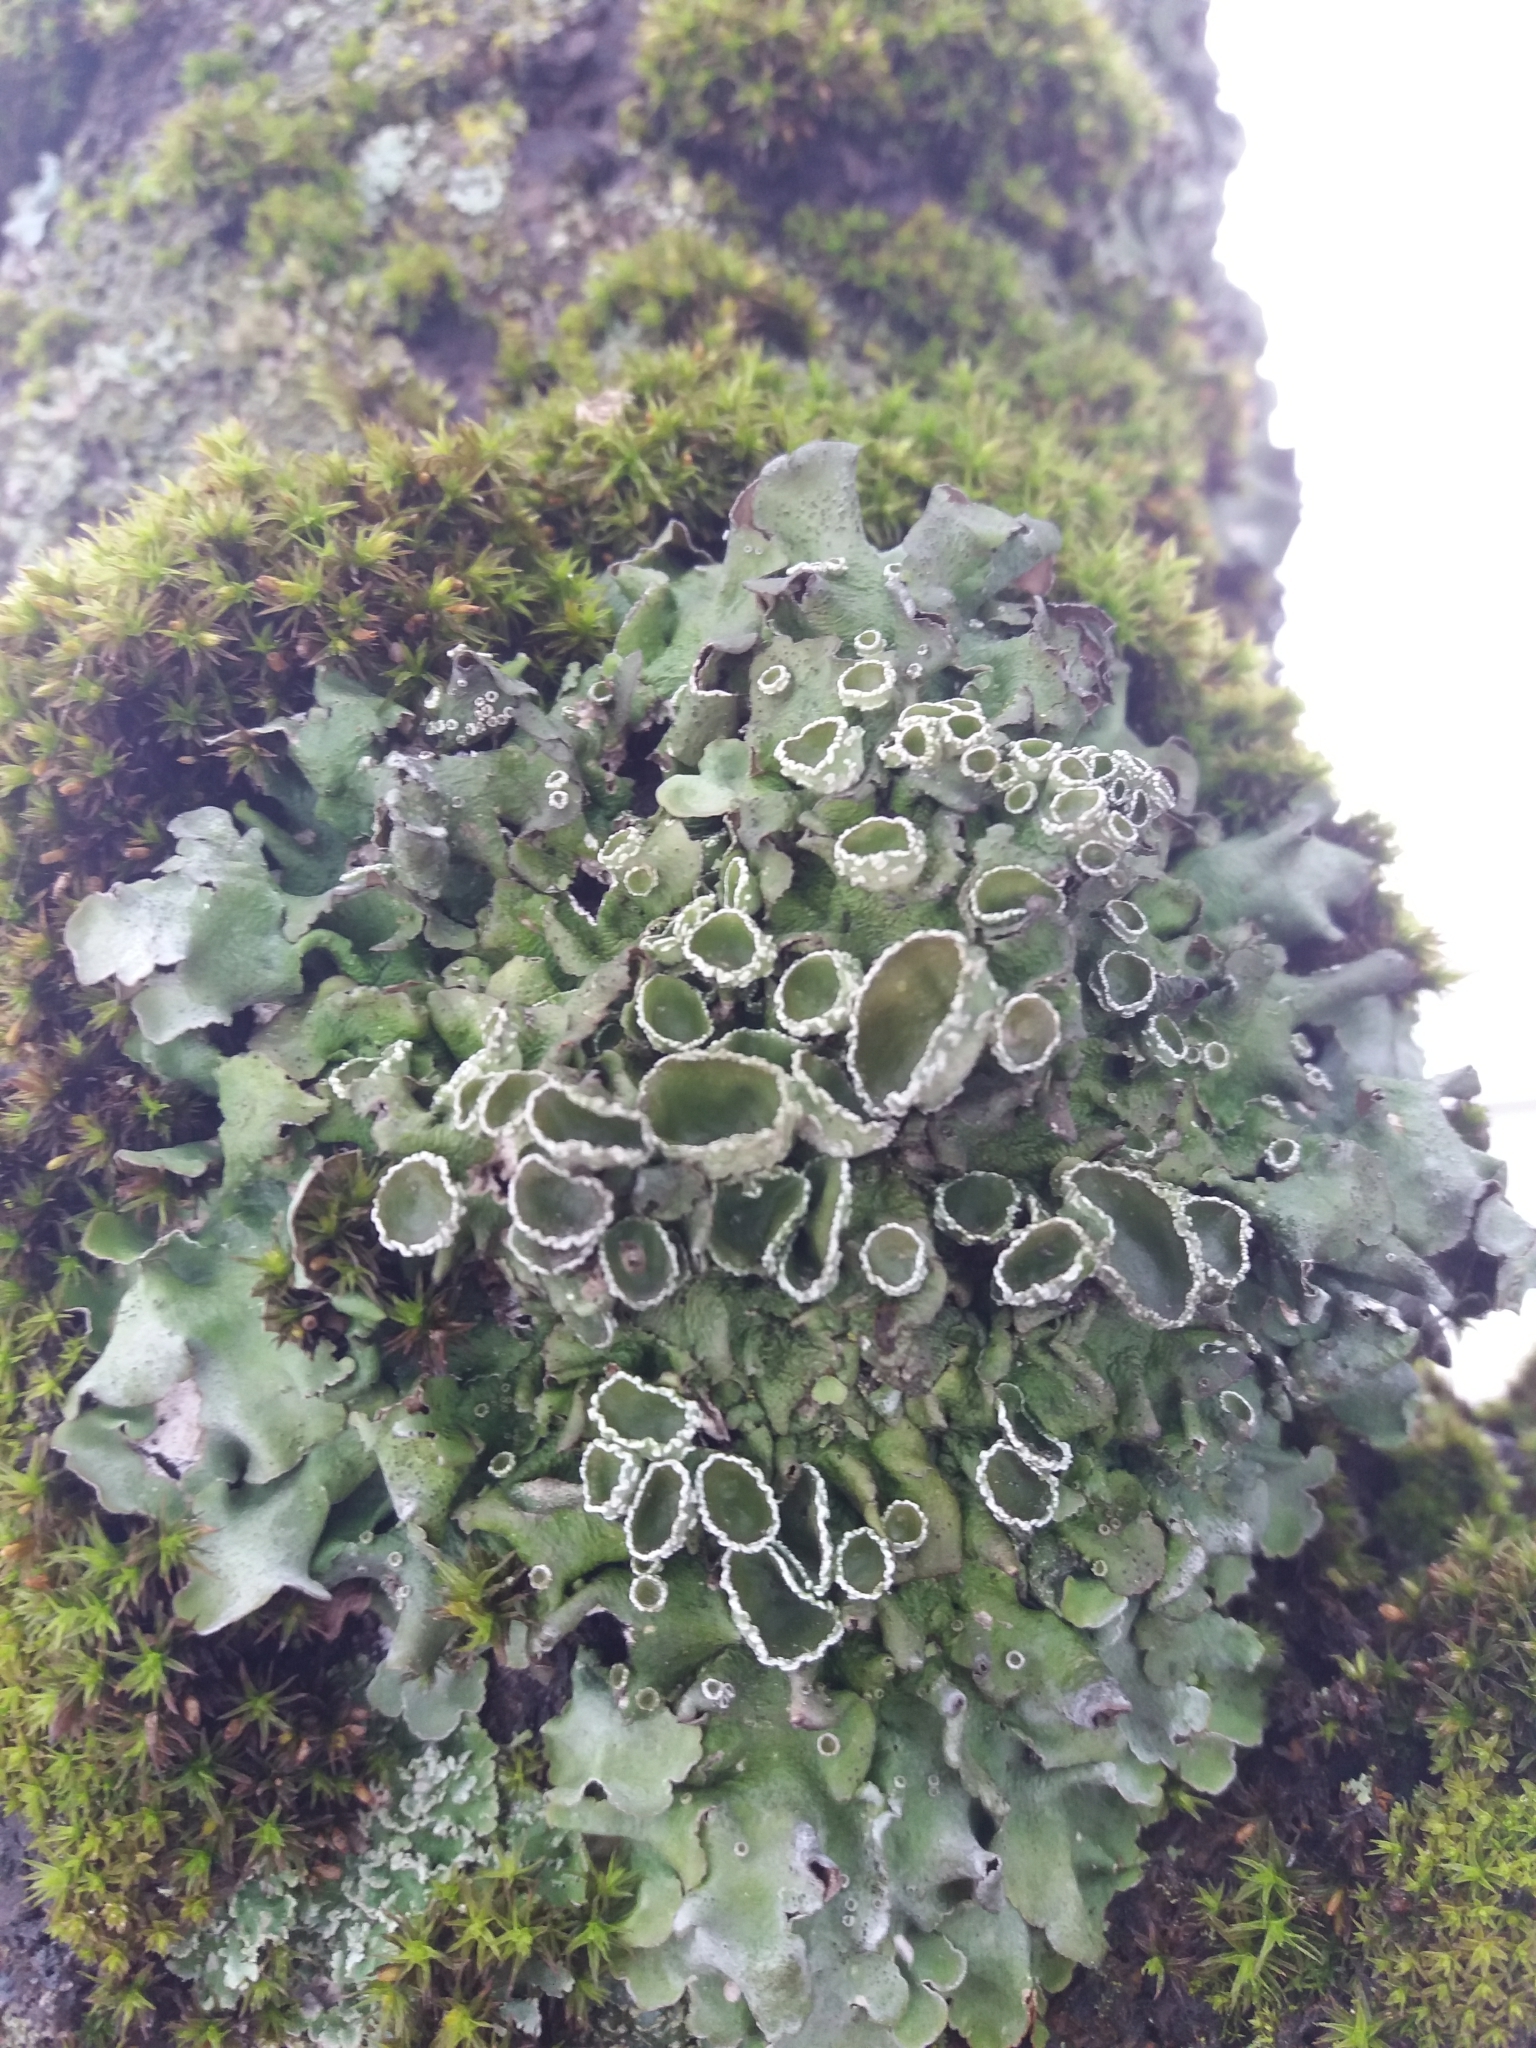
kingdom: Fungi
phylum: Ascomycota
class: Lecanoromycetes
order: Lecanorales
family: Parmeliaceae
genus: Pleurosticta
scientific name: Pleurosticta acetabulum
